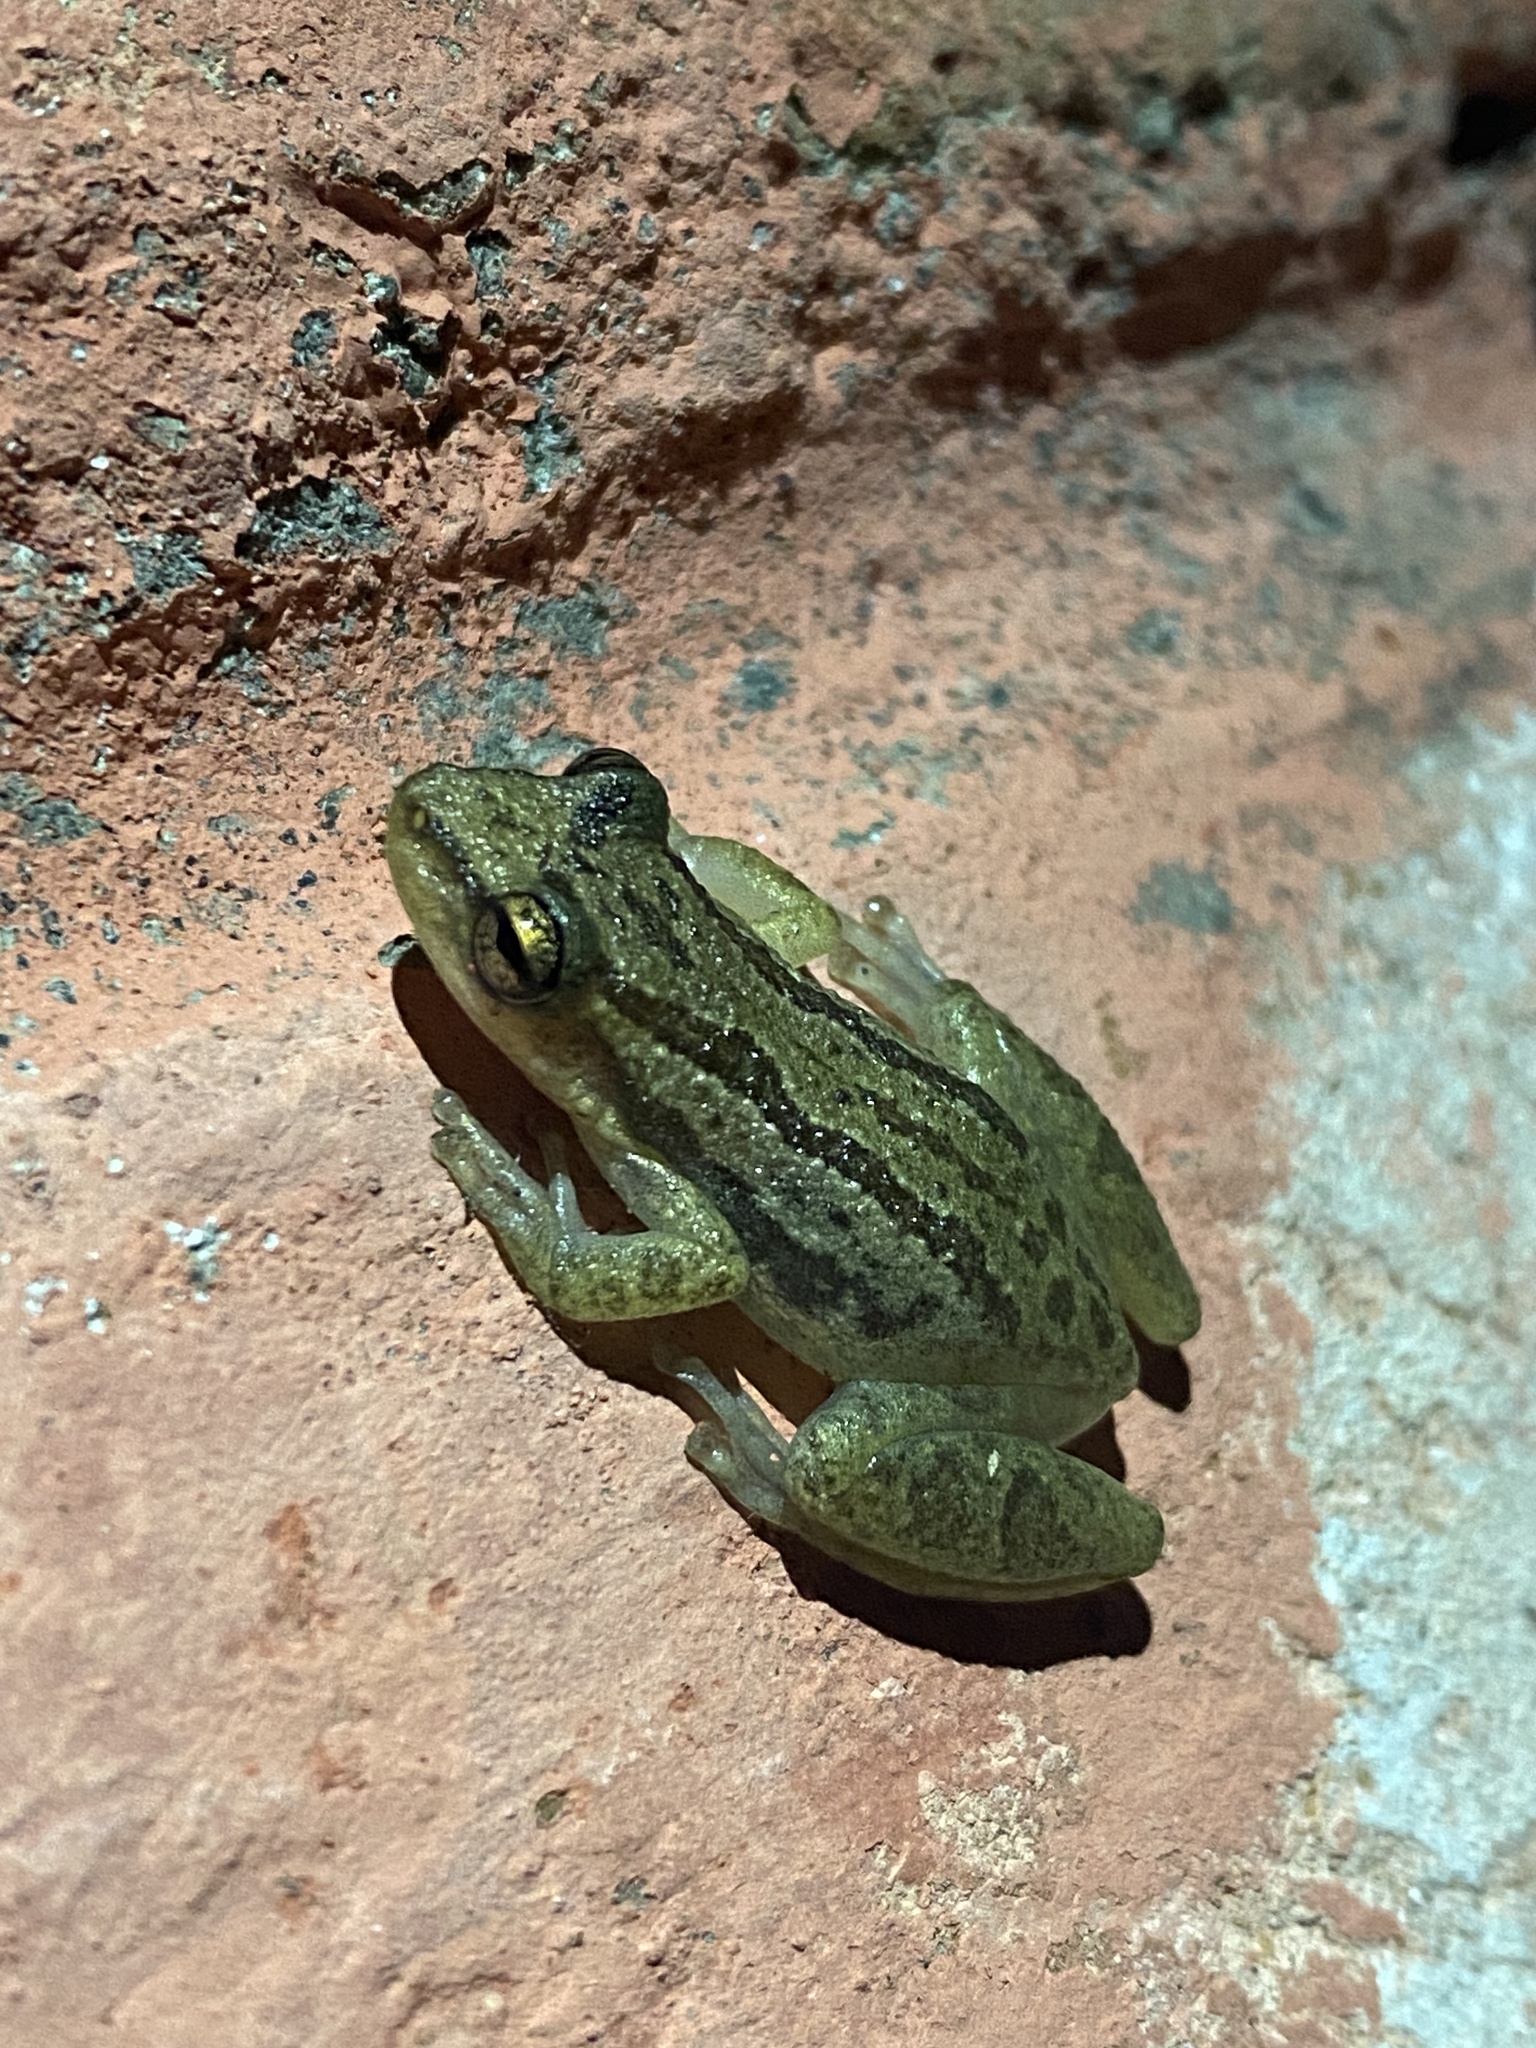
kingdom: Animalia
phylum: Chordata
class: Amphibia
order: Anura
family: Hylidae
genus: Scinax
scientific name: Scinax staufferi
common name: Stauffer's long-nosed treefrog
